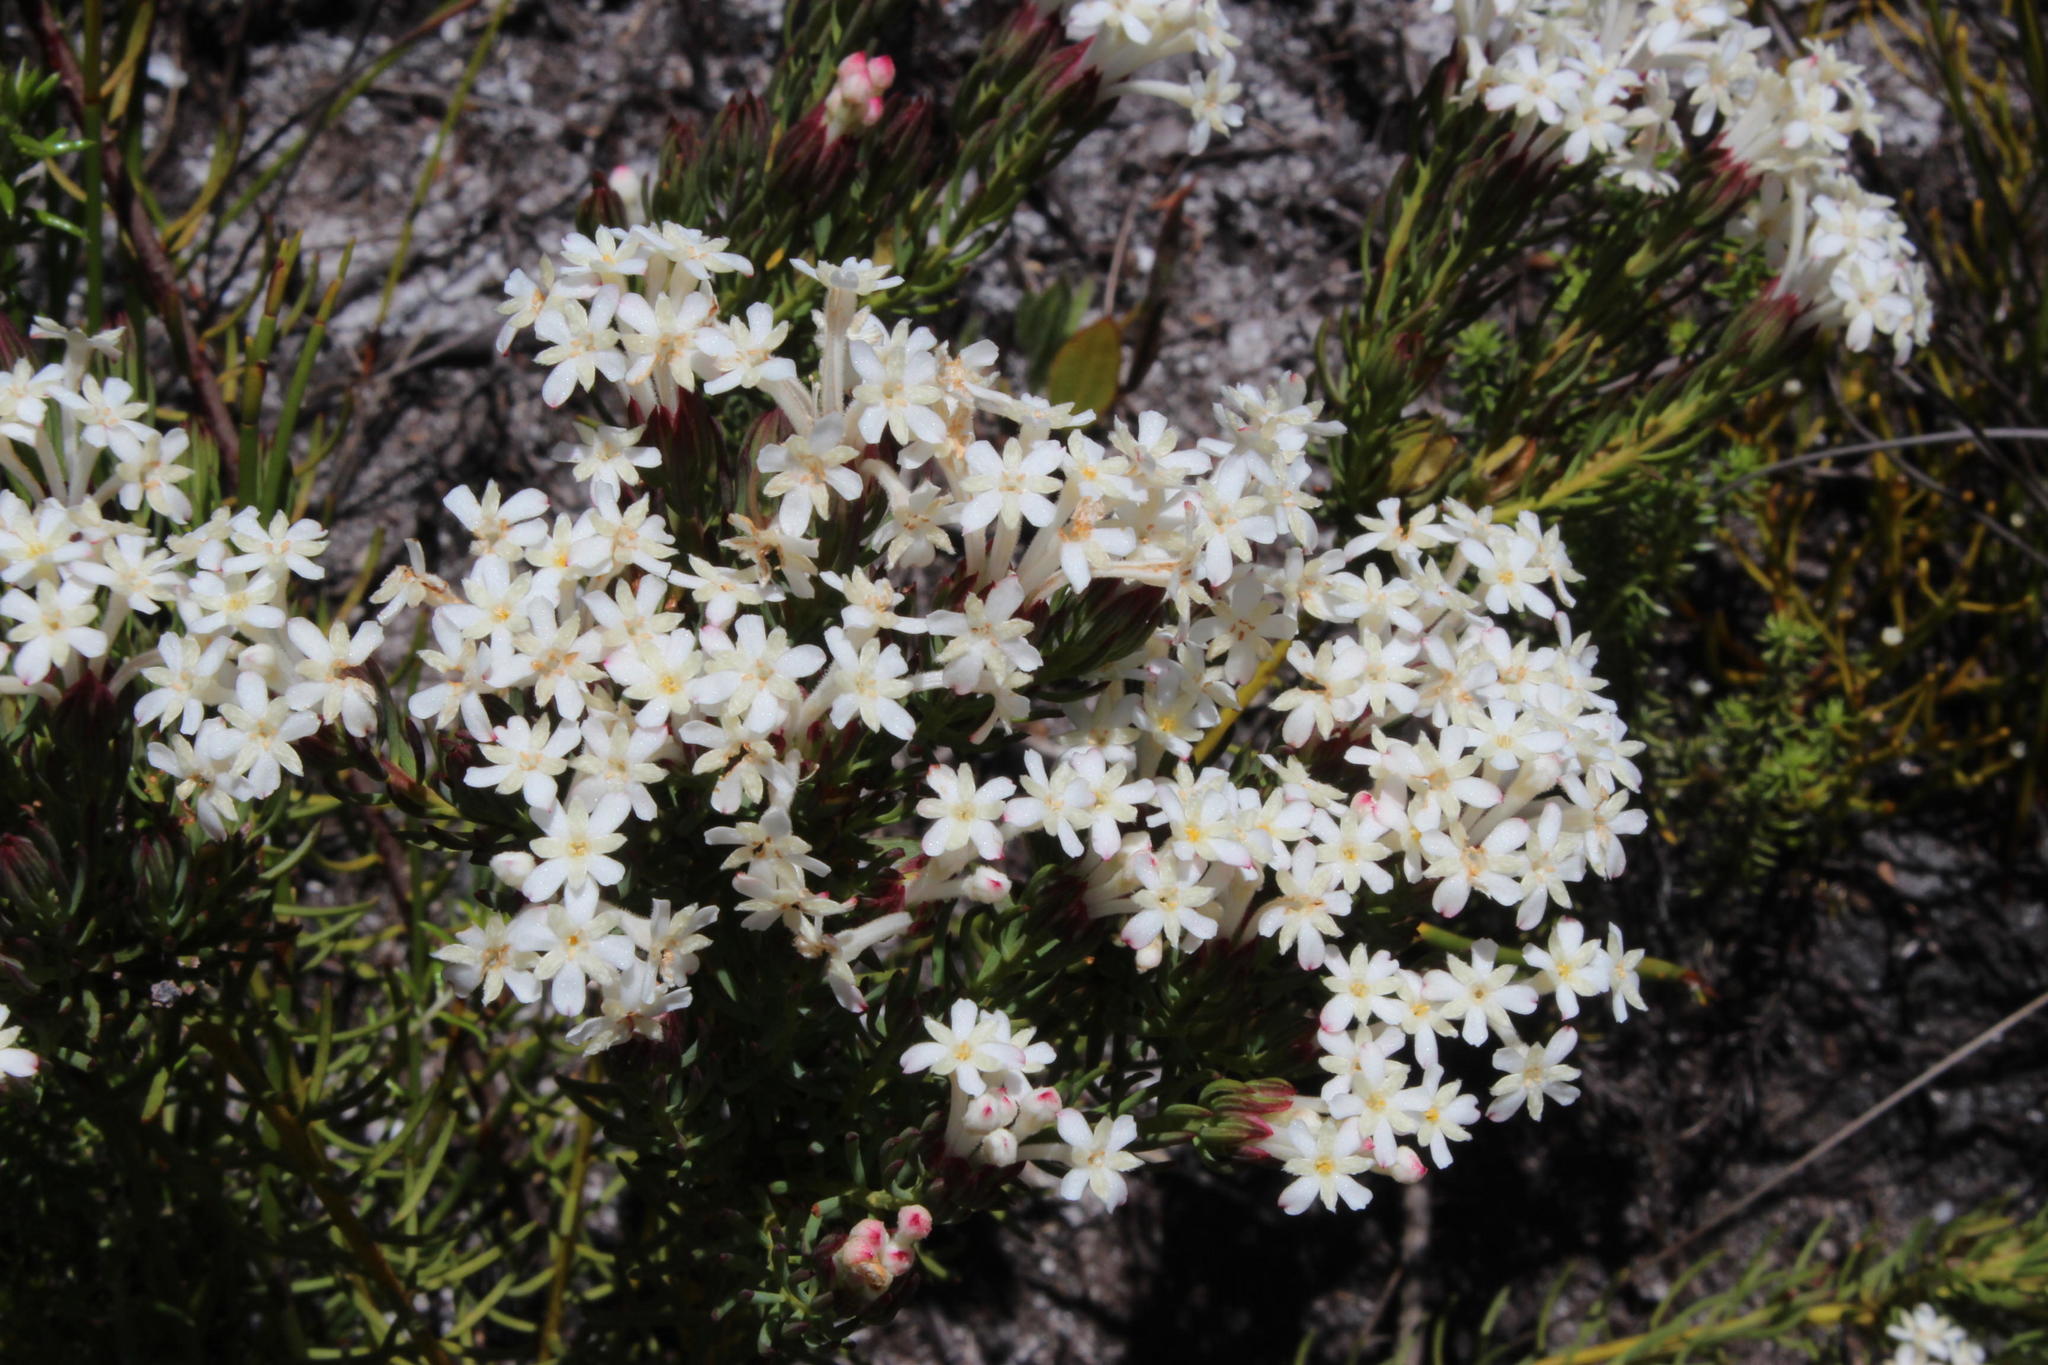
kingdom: Plantae
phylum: Tracheophyta
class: Magnoliopsida
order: Malvales
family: Thymelaeaceae
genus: Gnidia
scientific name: Gnidia pinifolia
